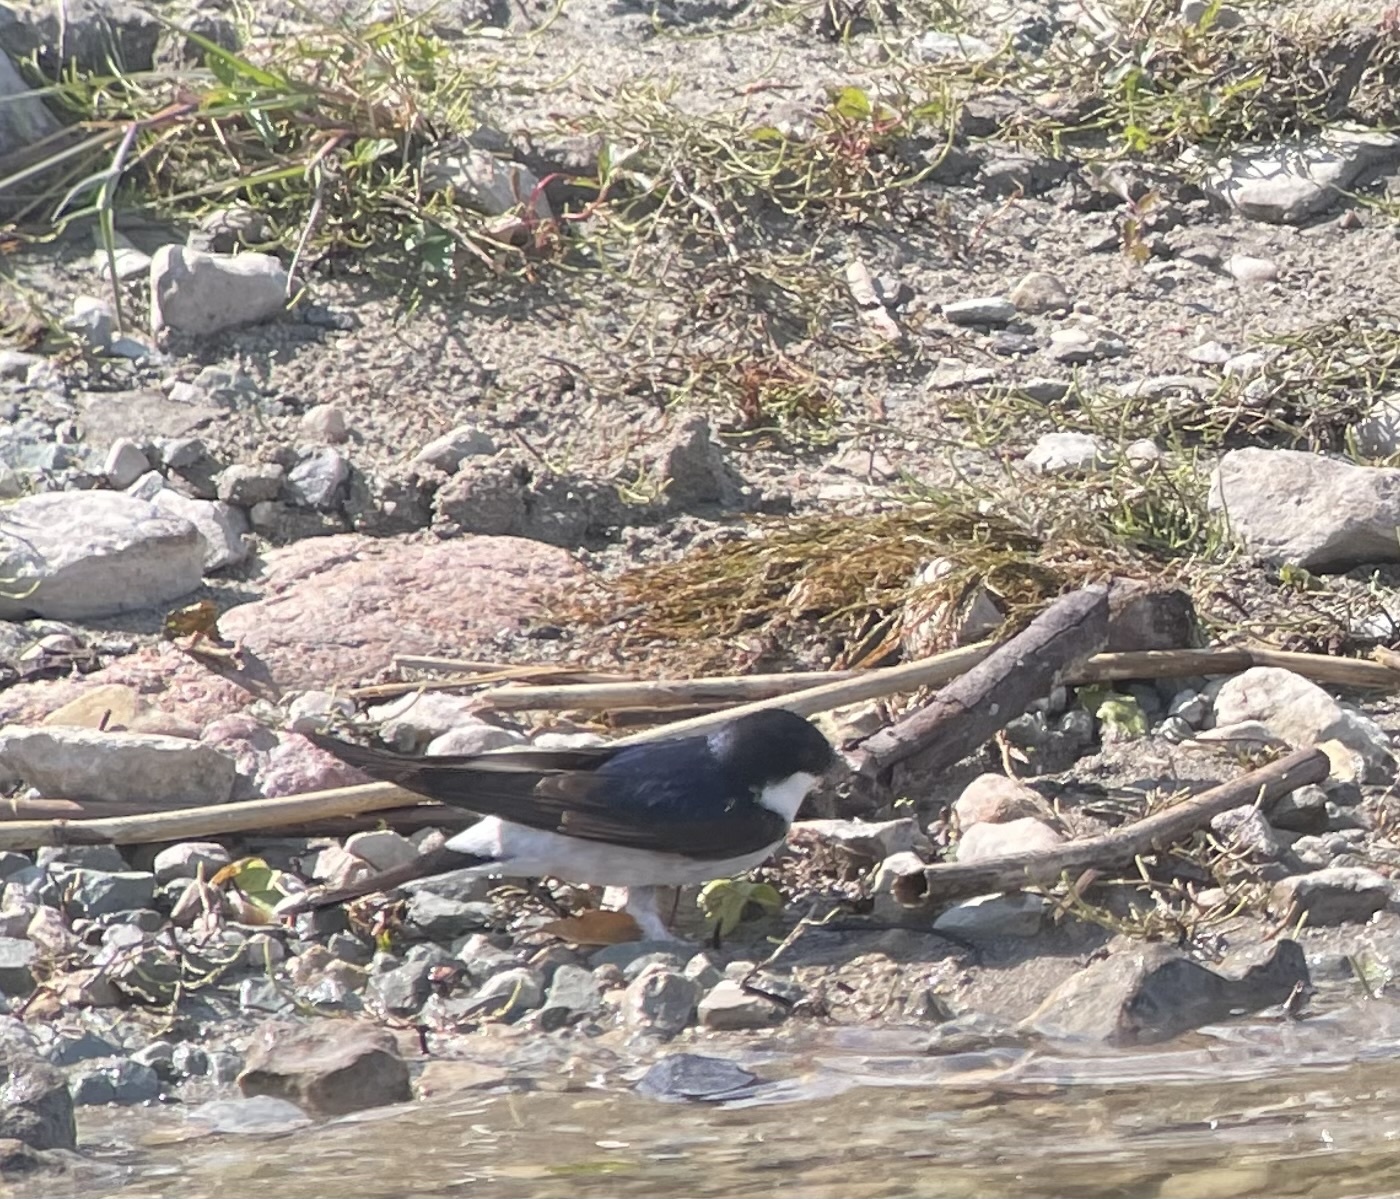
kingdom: Animalia
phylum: Chordata
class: Aves
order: Passeriformes
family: Hirundinidae
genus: Delichon
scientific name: Delichon urbicum
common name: Common house martin
